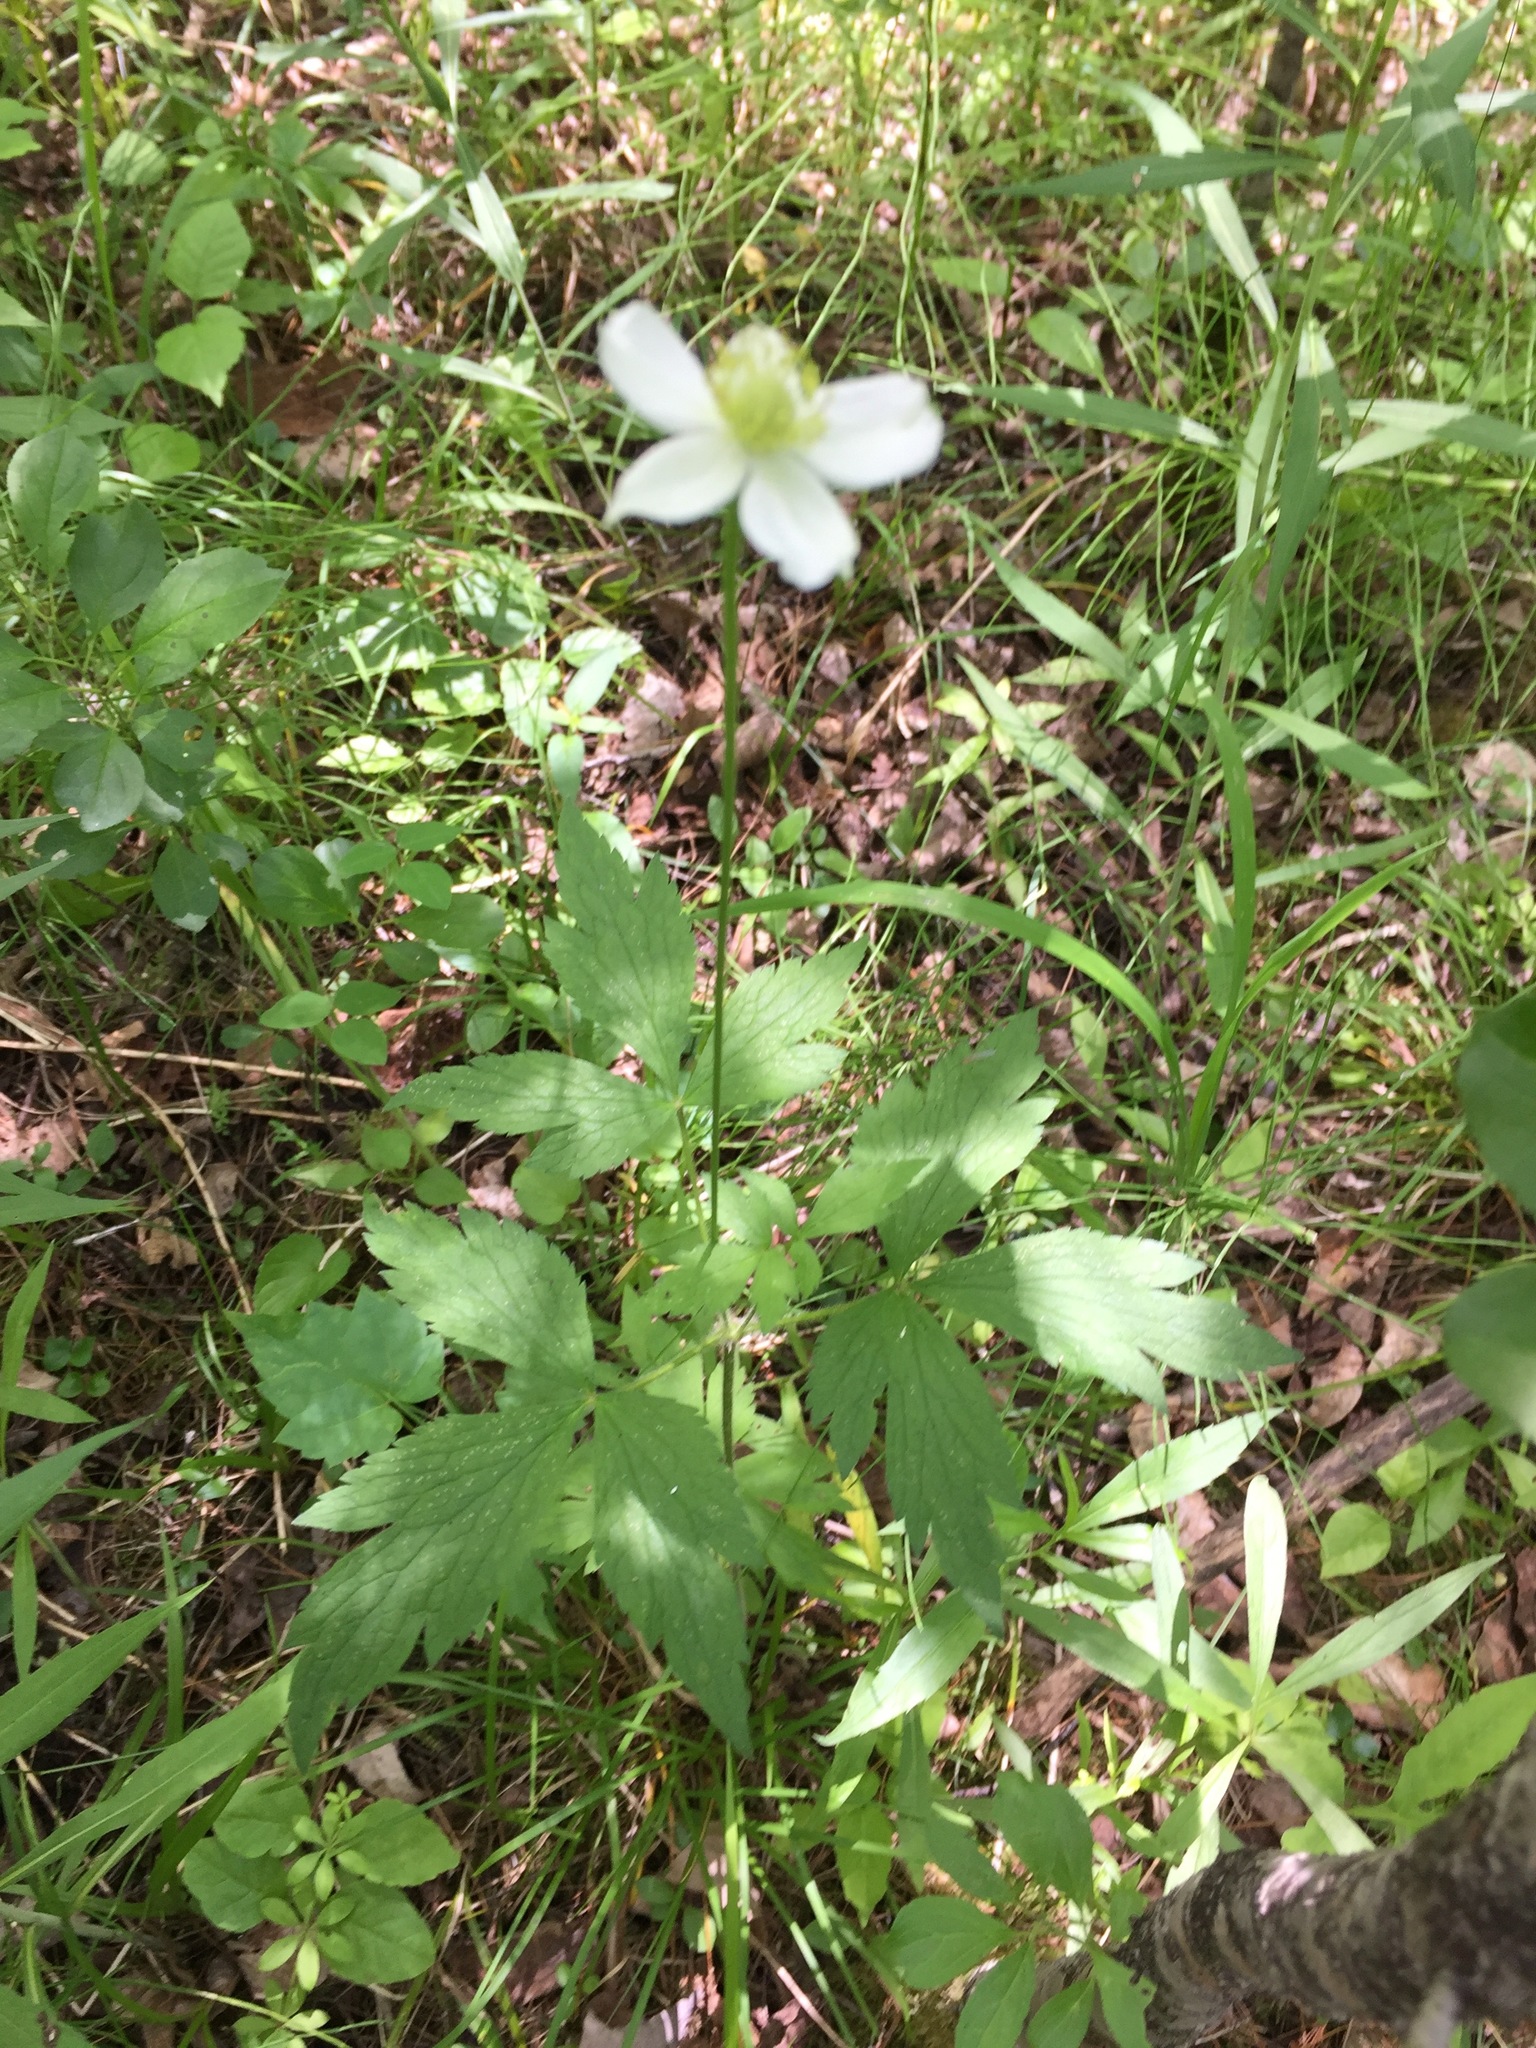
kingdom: Plantae
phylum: Tracheophyta
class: Magnoliopsida
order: Ranunculales
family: Ranunculaceae
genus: Anemone
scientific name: Anemone virginiana
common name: Tall anemone
